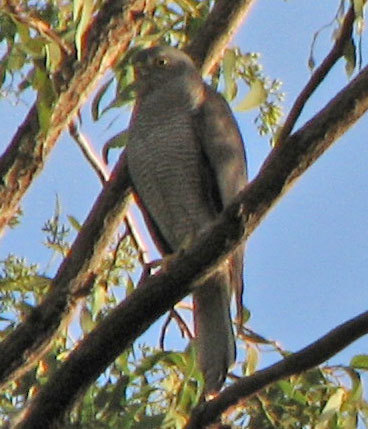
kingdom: Animalia
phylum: Chordata
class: Aves
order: Accipitriformes
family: Accipitridae
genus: Accipiter
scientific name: Accipiter fasciatus
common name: Brown goshawk
